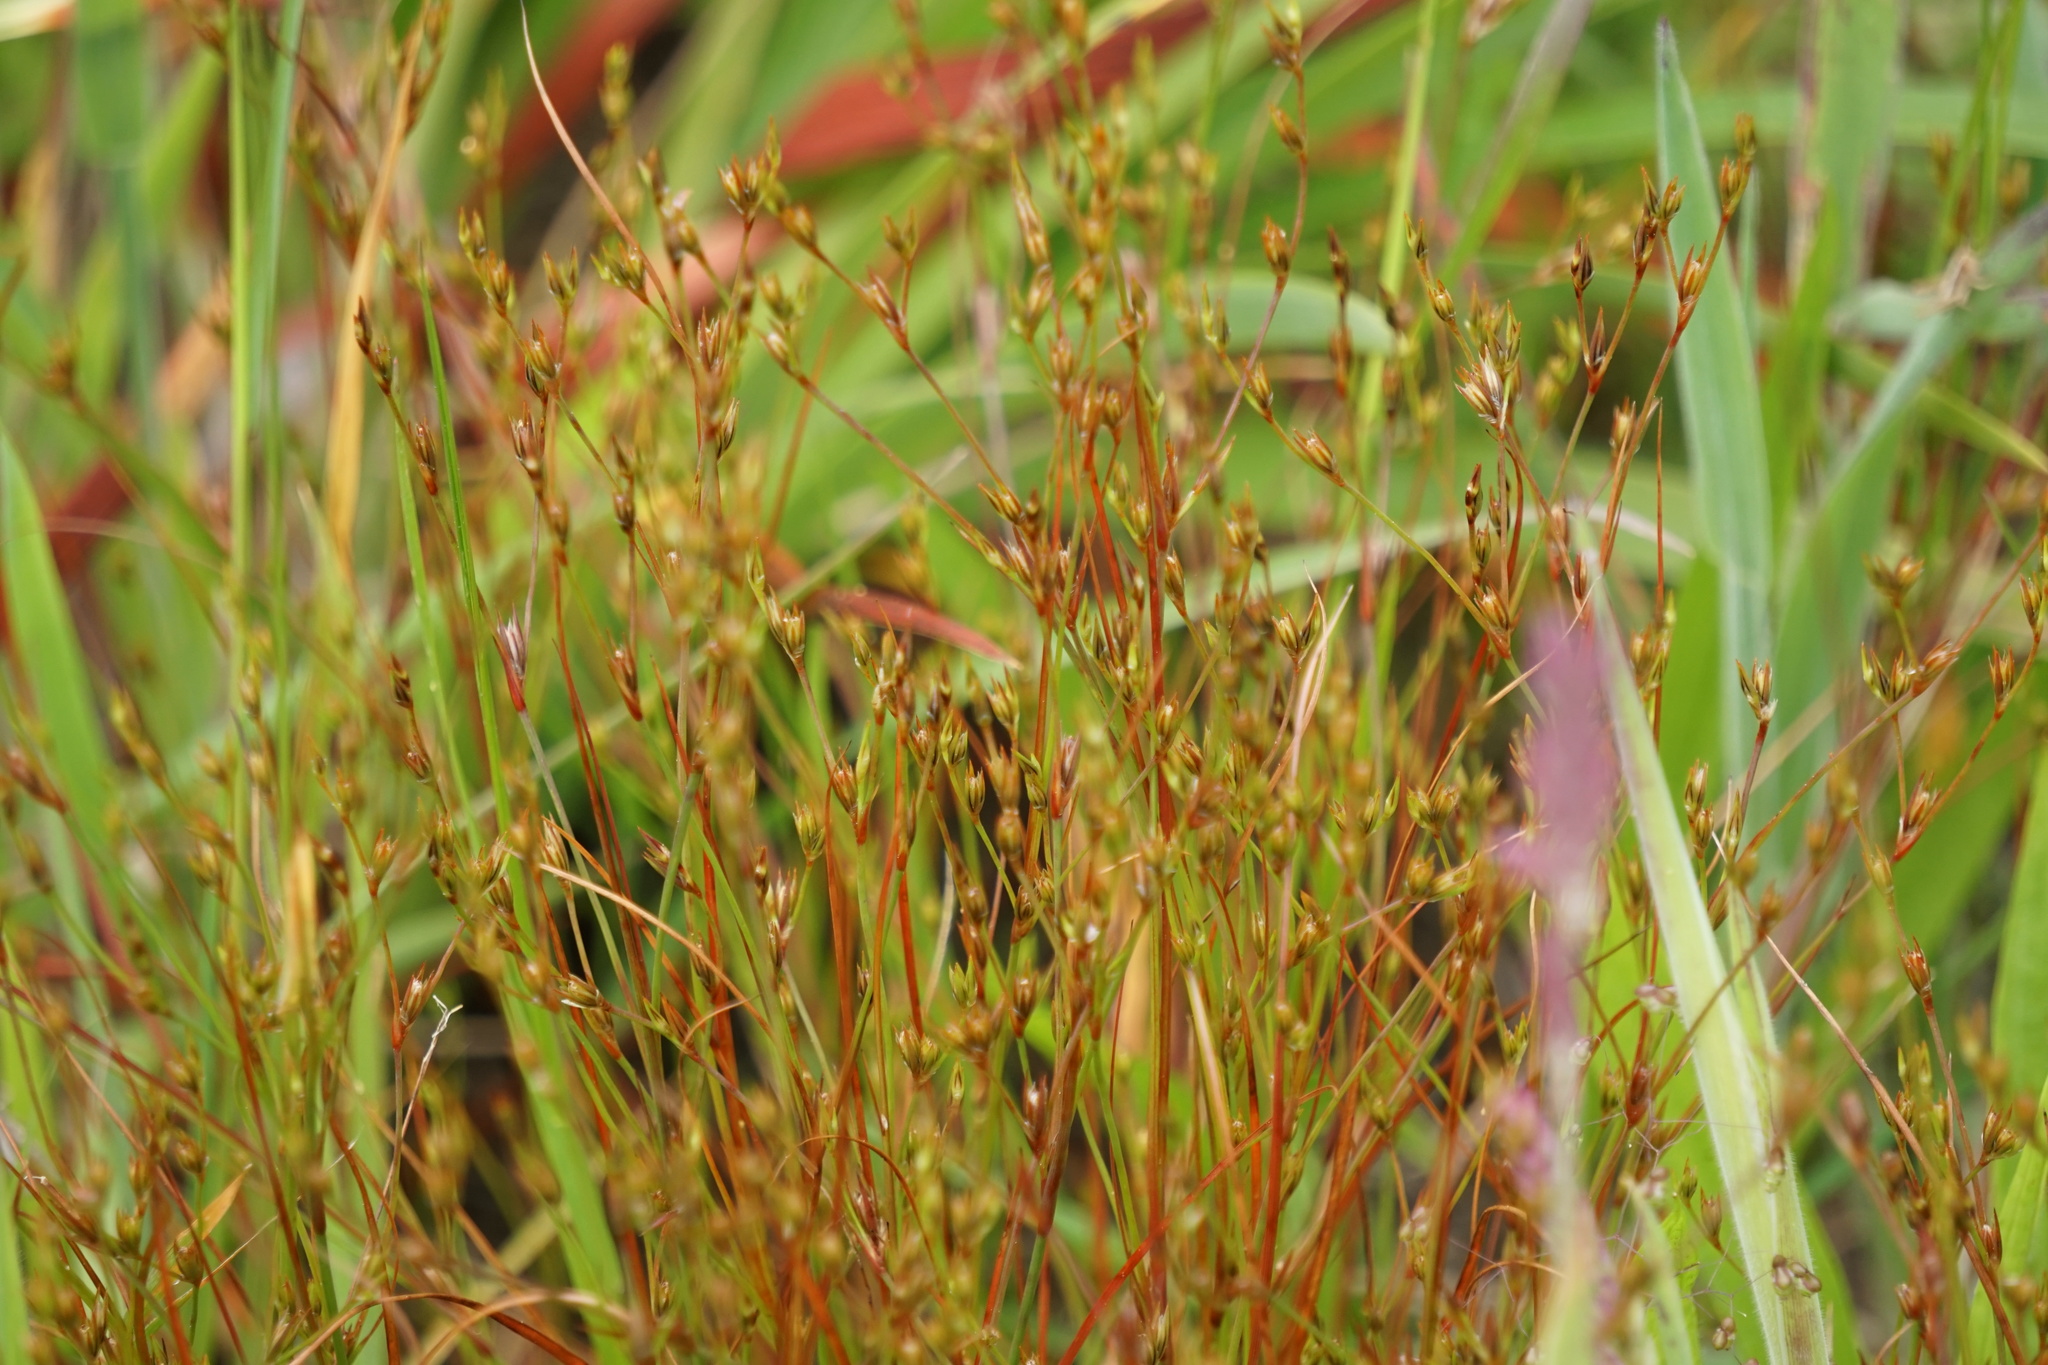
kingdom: Plantae
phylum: Tracheophyta
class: Liliopsida
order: Poales
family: Juncaceae
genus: Juncus
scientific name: Juncus bufonius
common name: Toad rush
